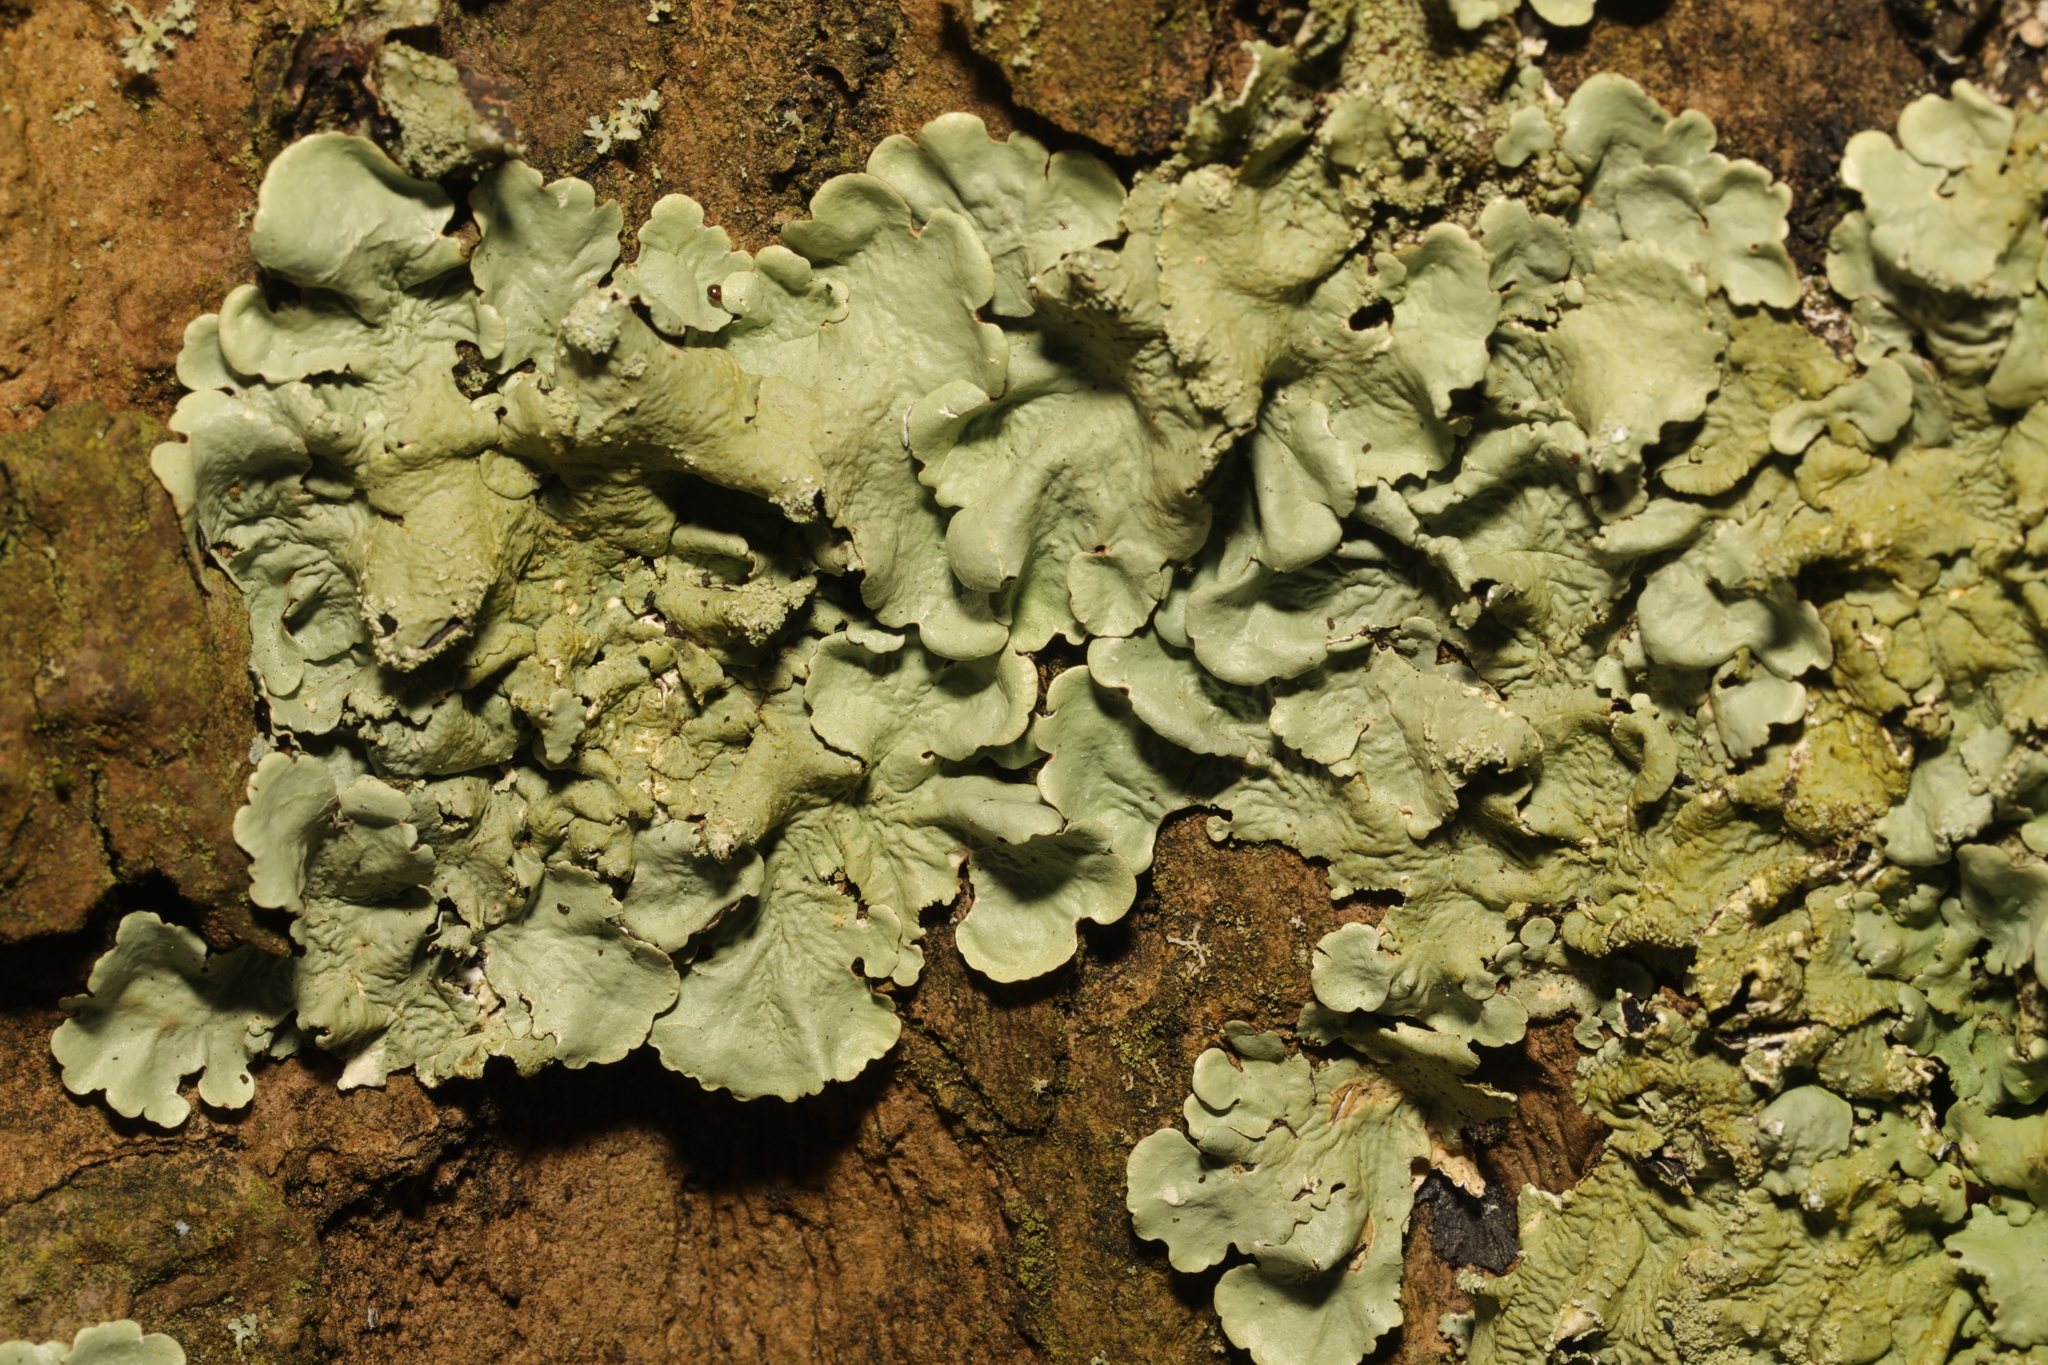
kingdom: Fungi
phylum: Ascomycota
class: Lecanoromycetes
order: Lecanorales
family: Parmeliaceae
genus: Flavoparmelia
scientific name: Flavoparmelia caperata
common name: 40-mile per hour lichen
